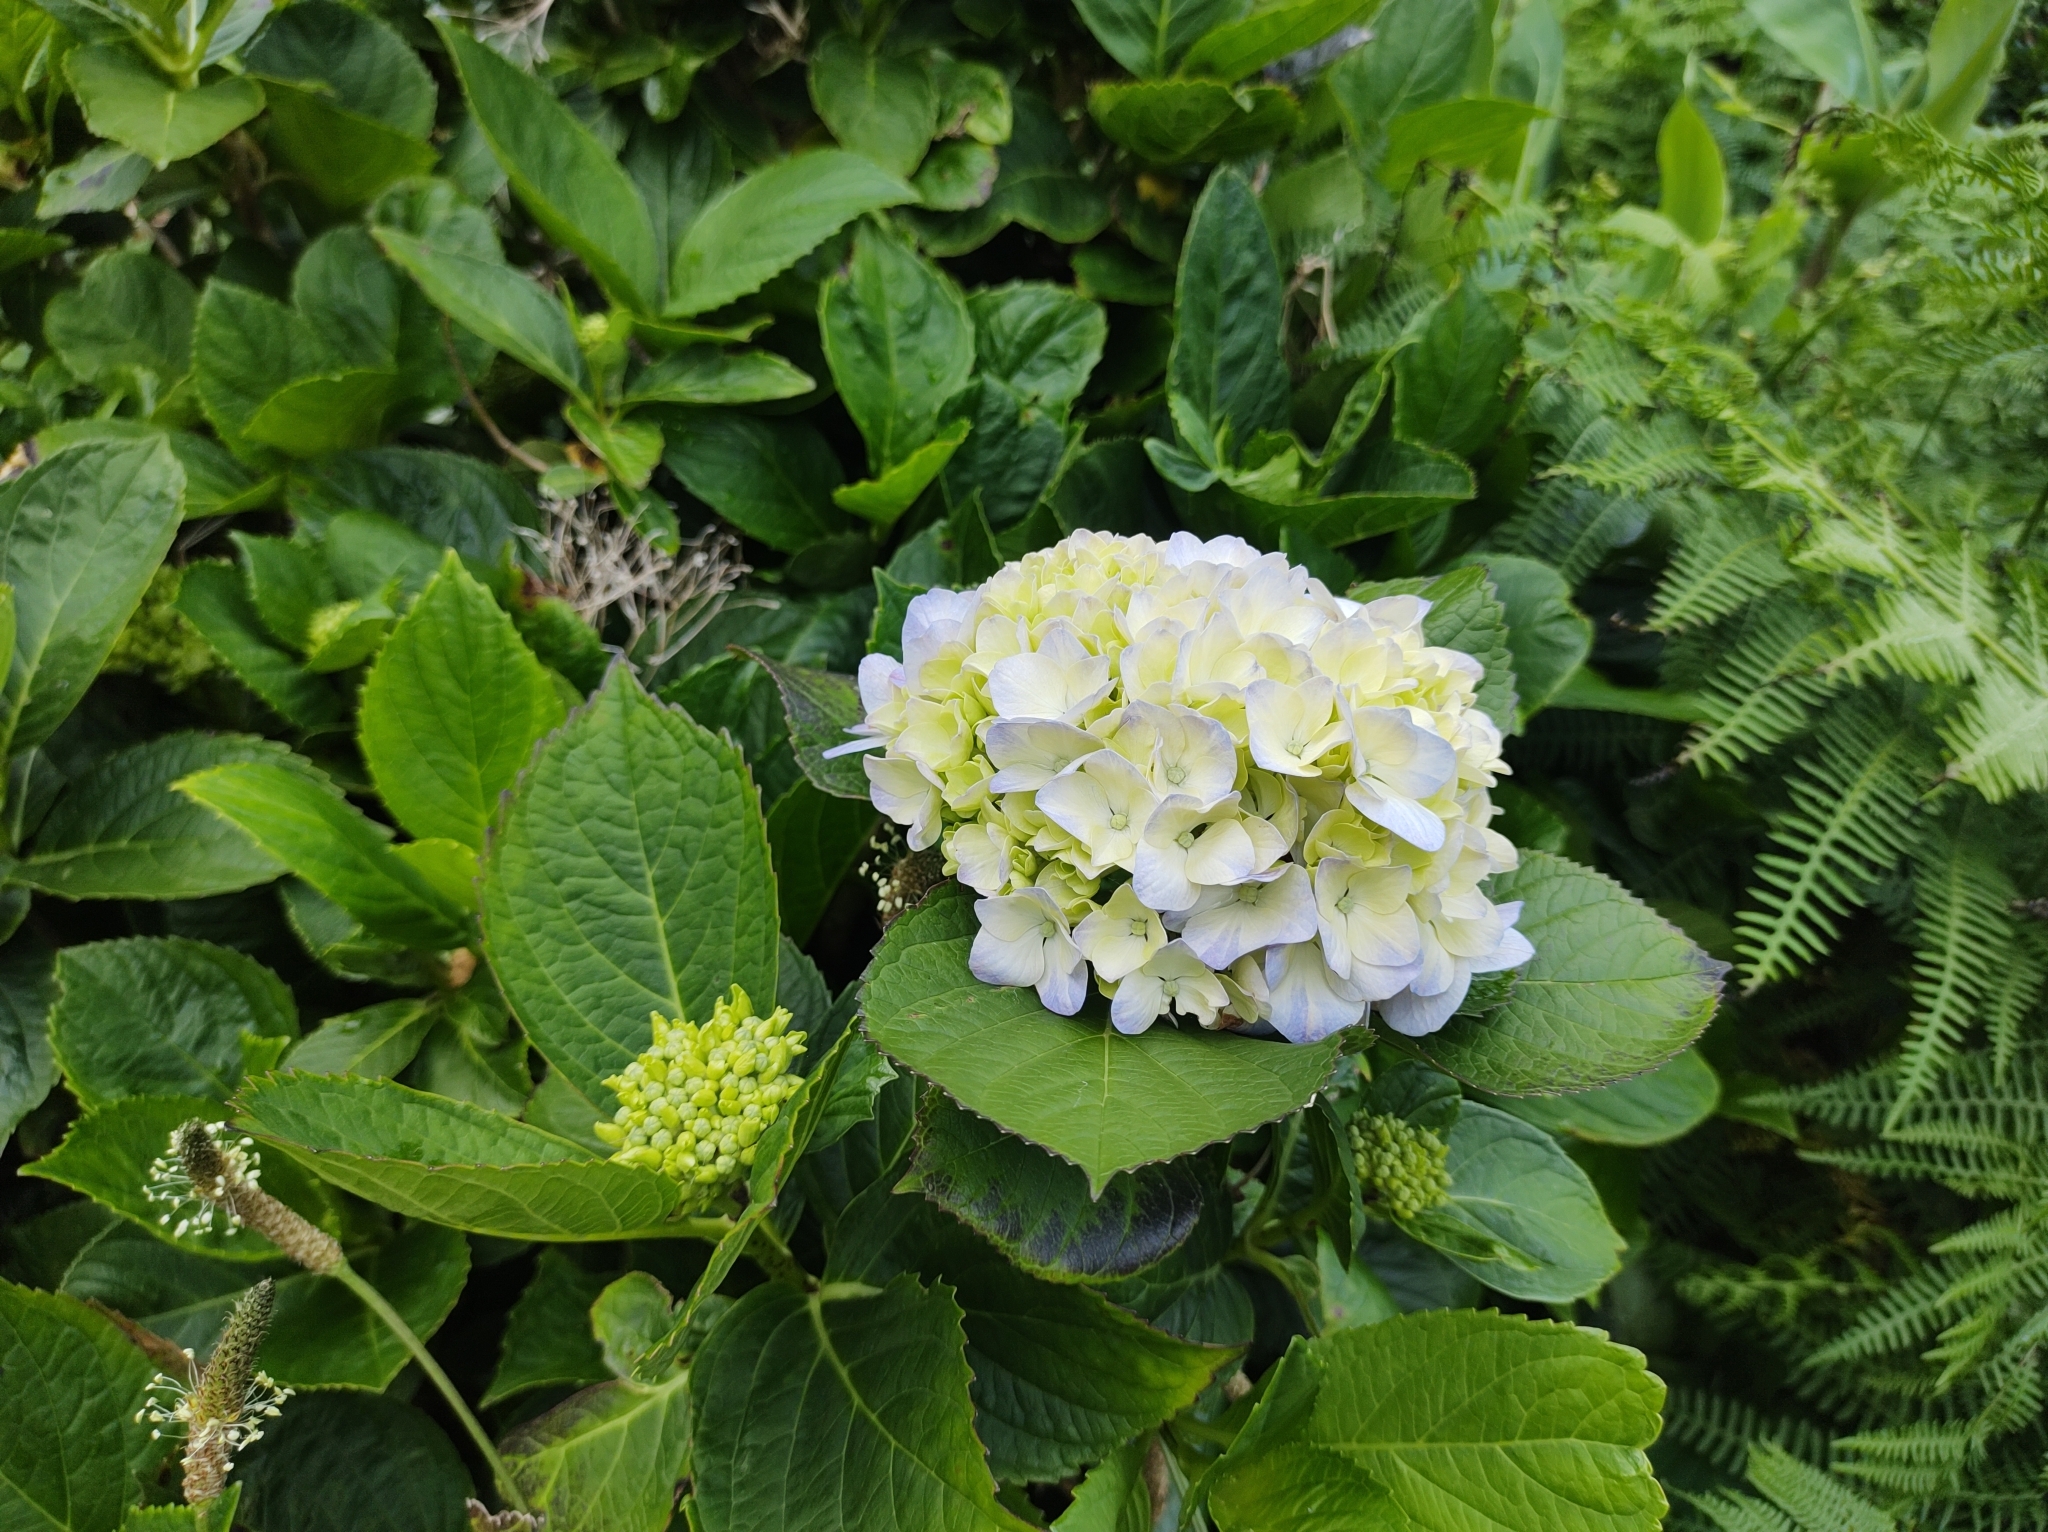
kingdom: Plantae
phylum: Tracheophyta
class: Magnoliopsida
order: Cornales
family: Hydrangeaceae
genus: Hydrangea
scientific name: Hydrangea macrophylla
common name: Hydrangea
